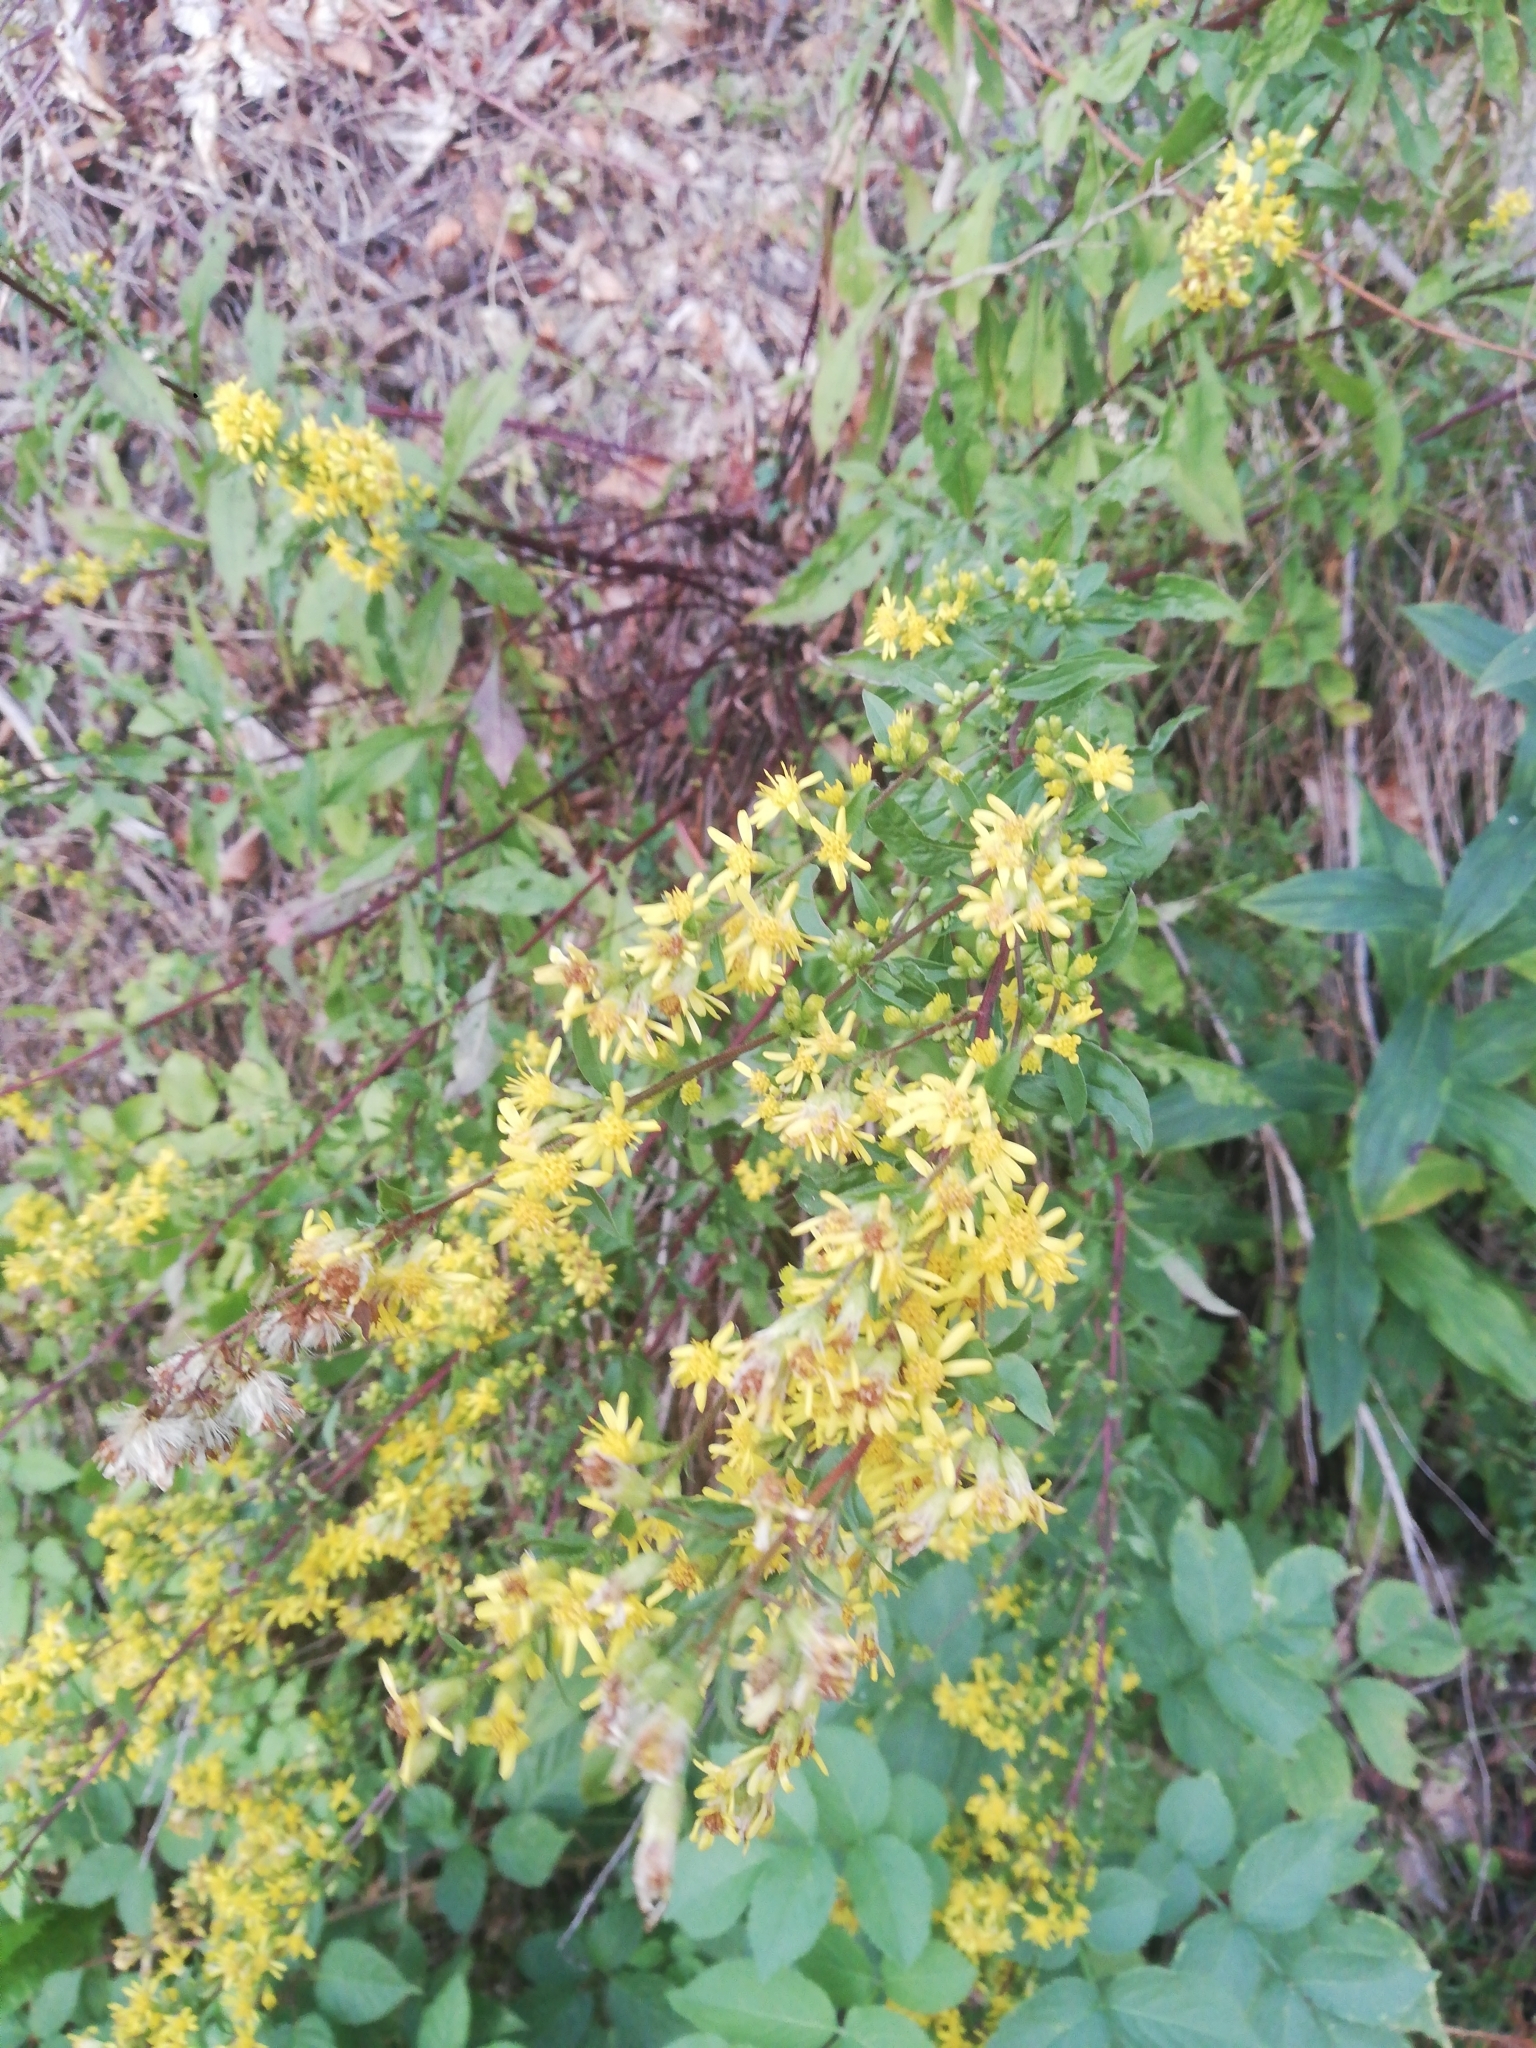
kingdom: Plantae
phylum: Tracheophyta
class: Magnoliopsida
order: Asterales
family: Asteraceae
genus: Solidago
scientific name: Solidago virgaurea
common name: Goldenrod
